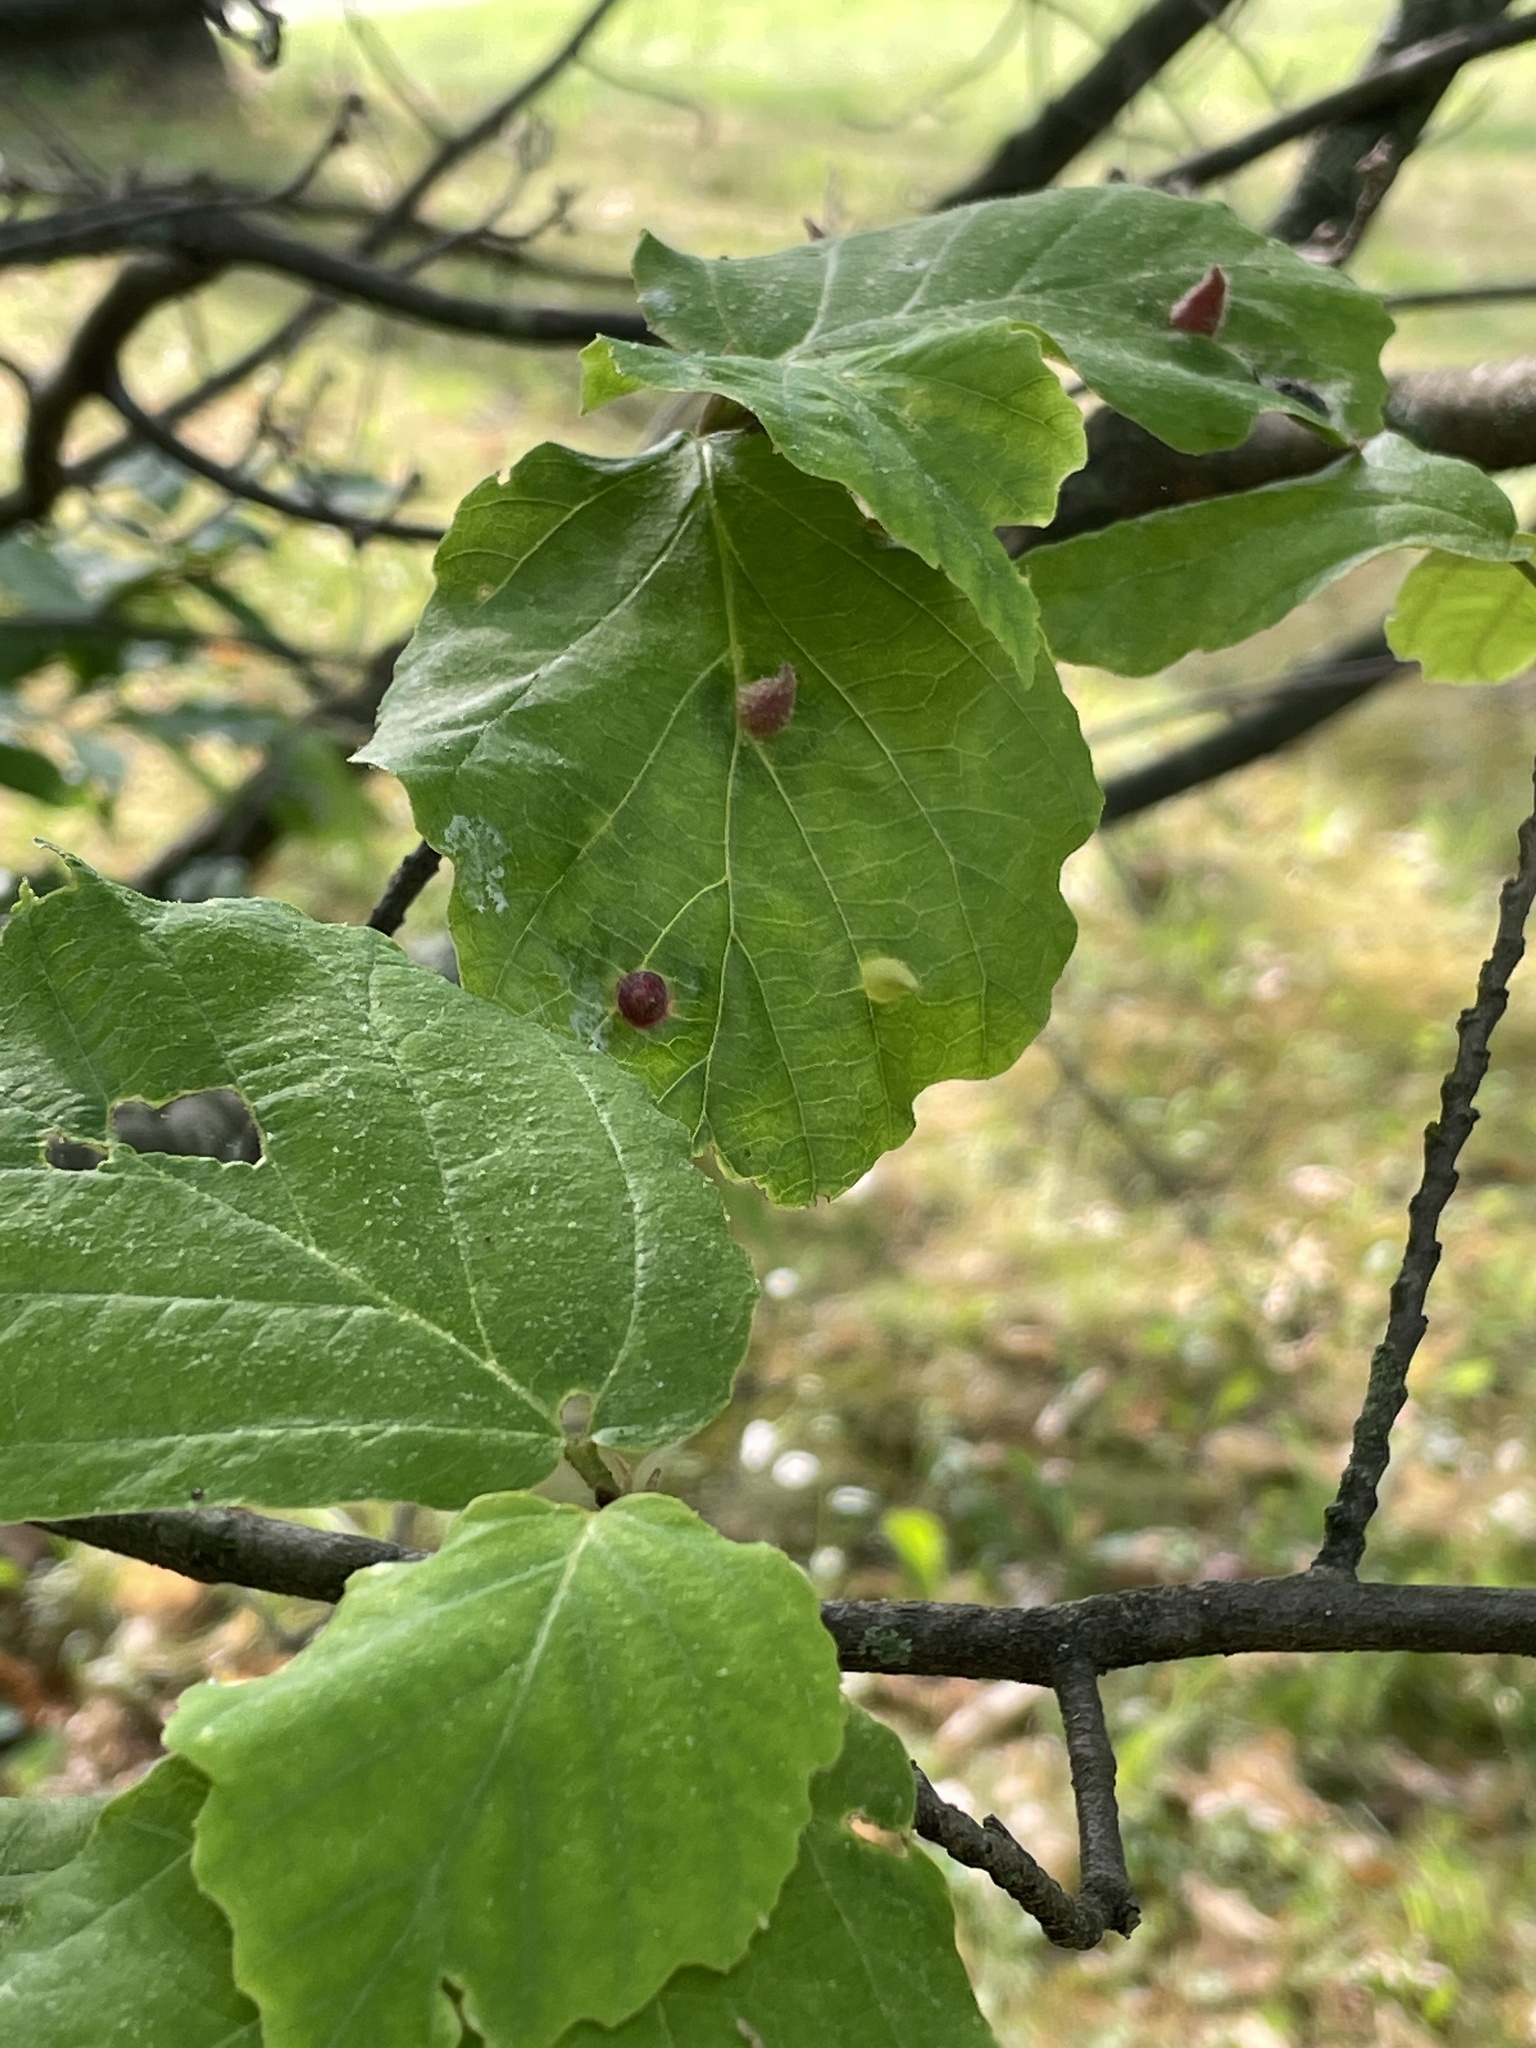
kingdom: Animalia
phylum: Arthropoda
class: Insecta
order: Hemiptera
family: Aphididae
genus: Hormaphis
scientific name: Hormaphis hamamelidis
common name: Witch-hazel cone gall aphid
